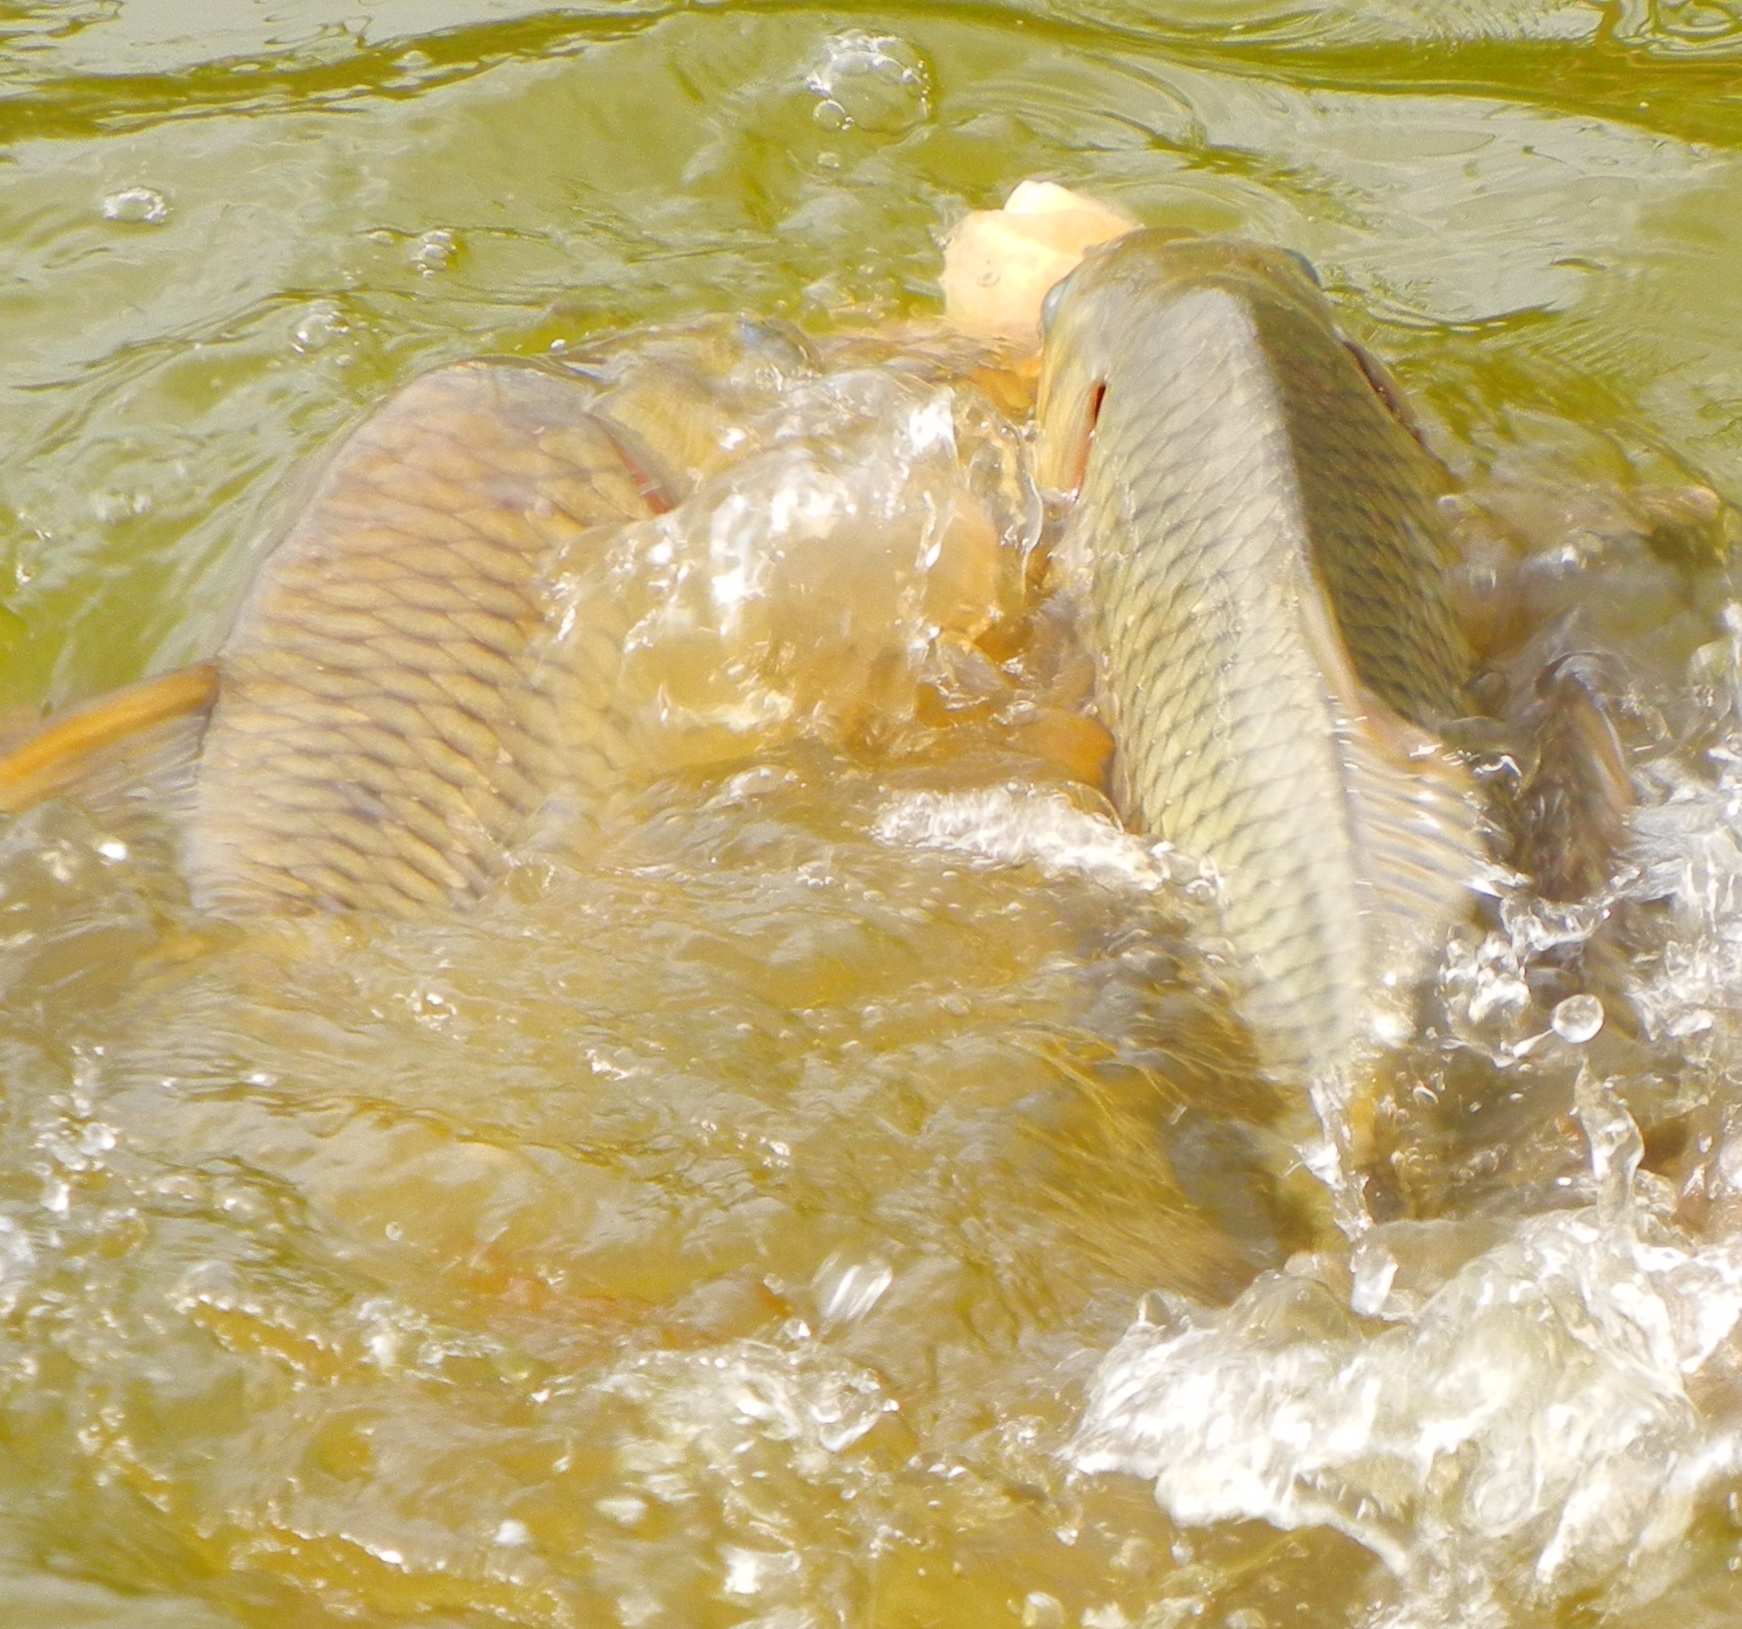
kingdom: Animalia
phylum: Chordata
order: Cypriniformes
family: Cyprinidae
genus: Cyprinus
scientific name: Cyprinus carpio
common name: Common carp
